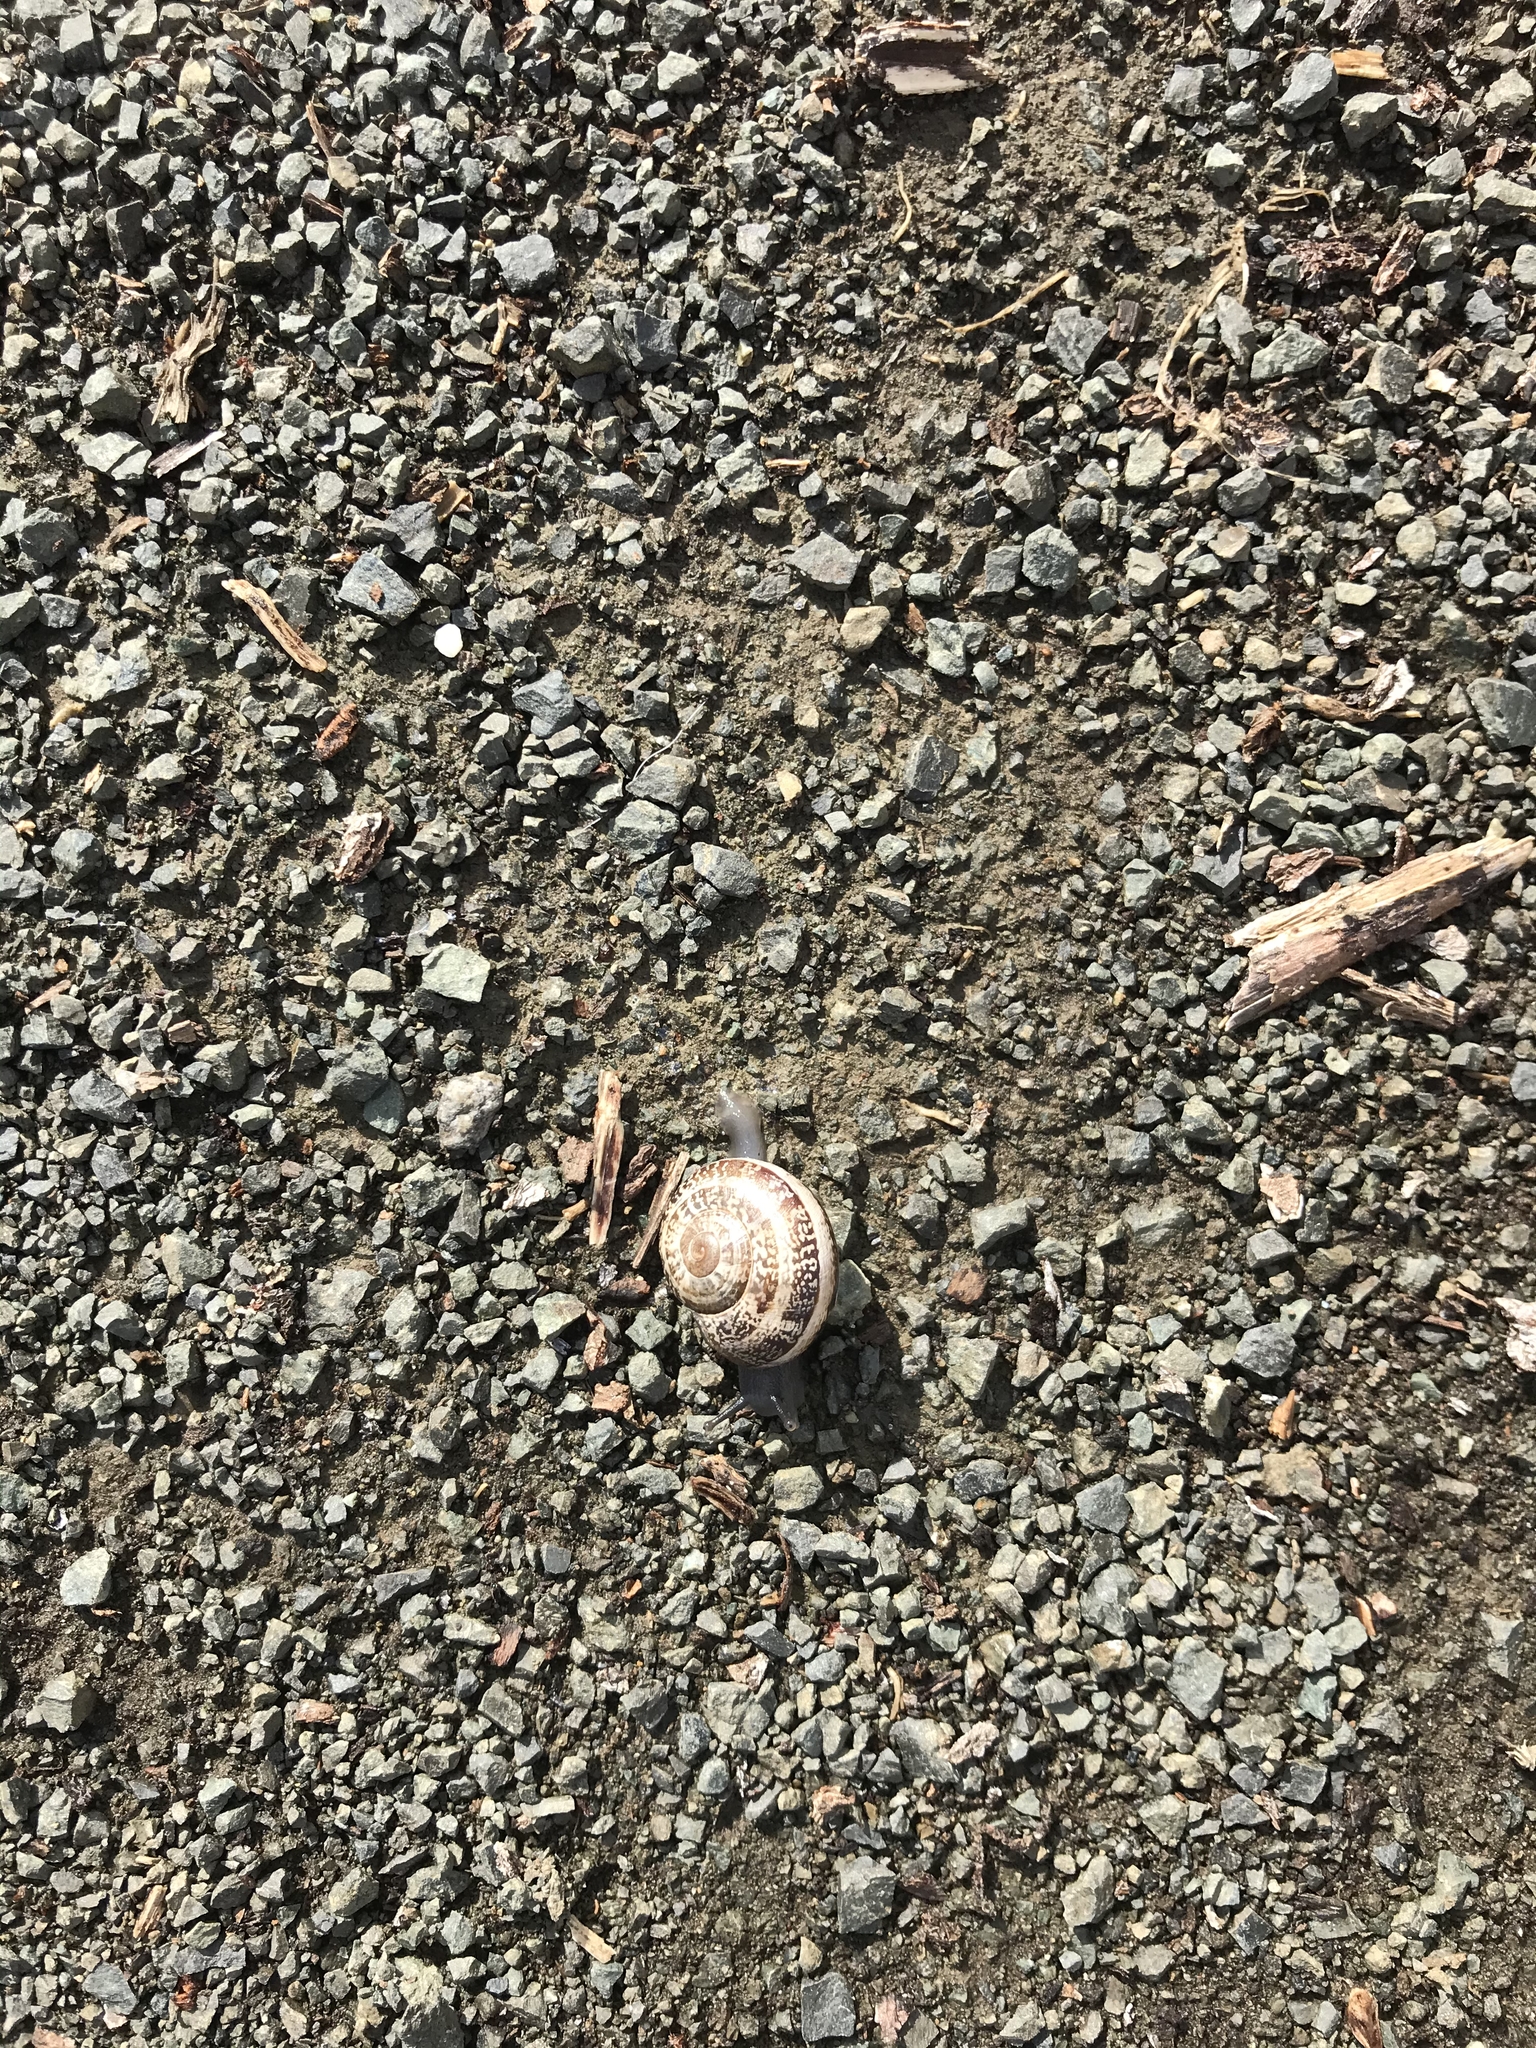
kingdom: Animalia
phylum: Mollusca
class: Gastropoda
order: Stylommatophora
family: Helicidae
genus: Otala
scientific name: Otala lactea
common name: Milk snail
